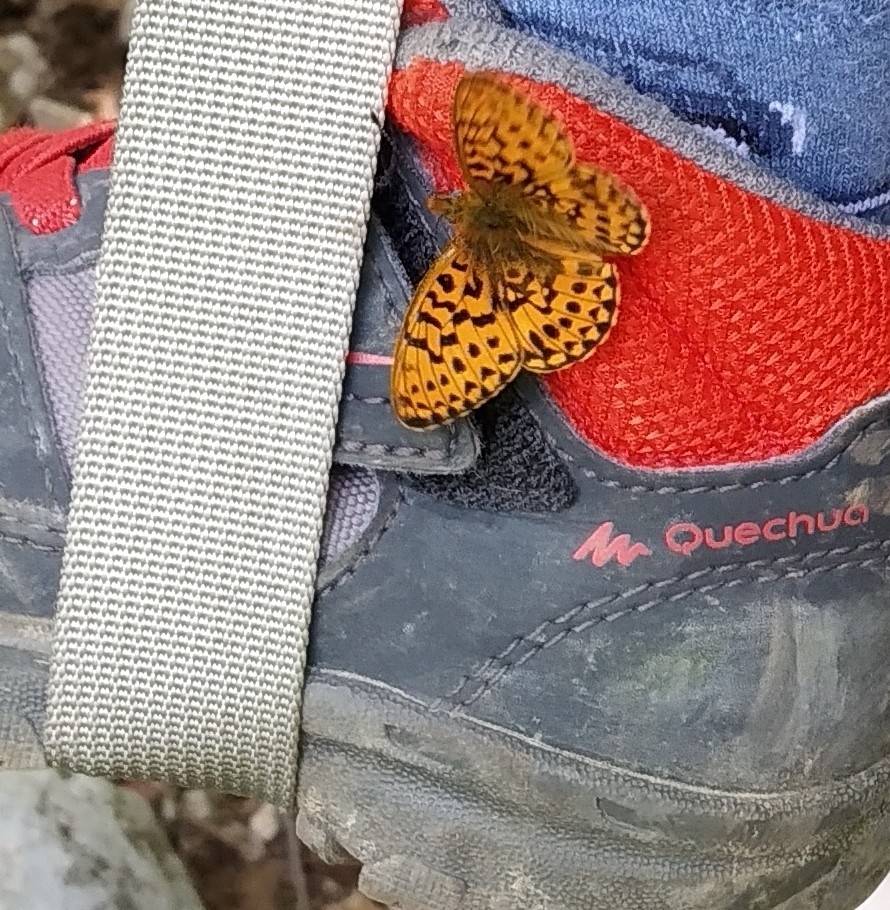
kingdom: Animalia
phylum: Arthropoda
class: Insecta
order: Lepidoptera
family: Nymphalidae
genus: Clossiana
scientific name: Clossiana euphrosyne
